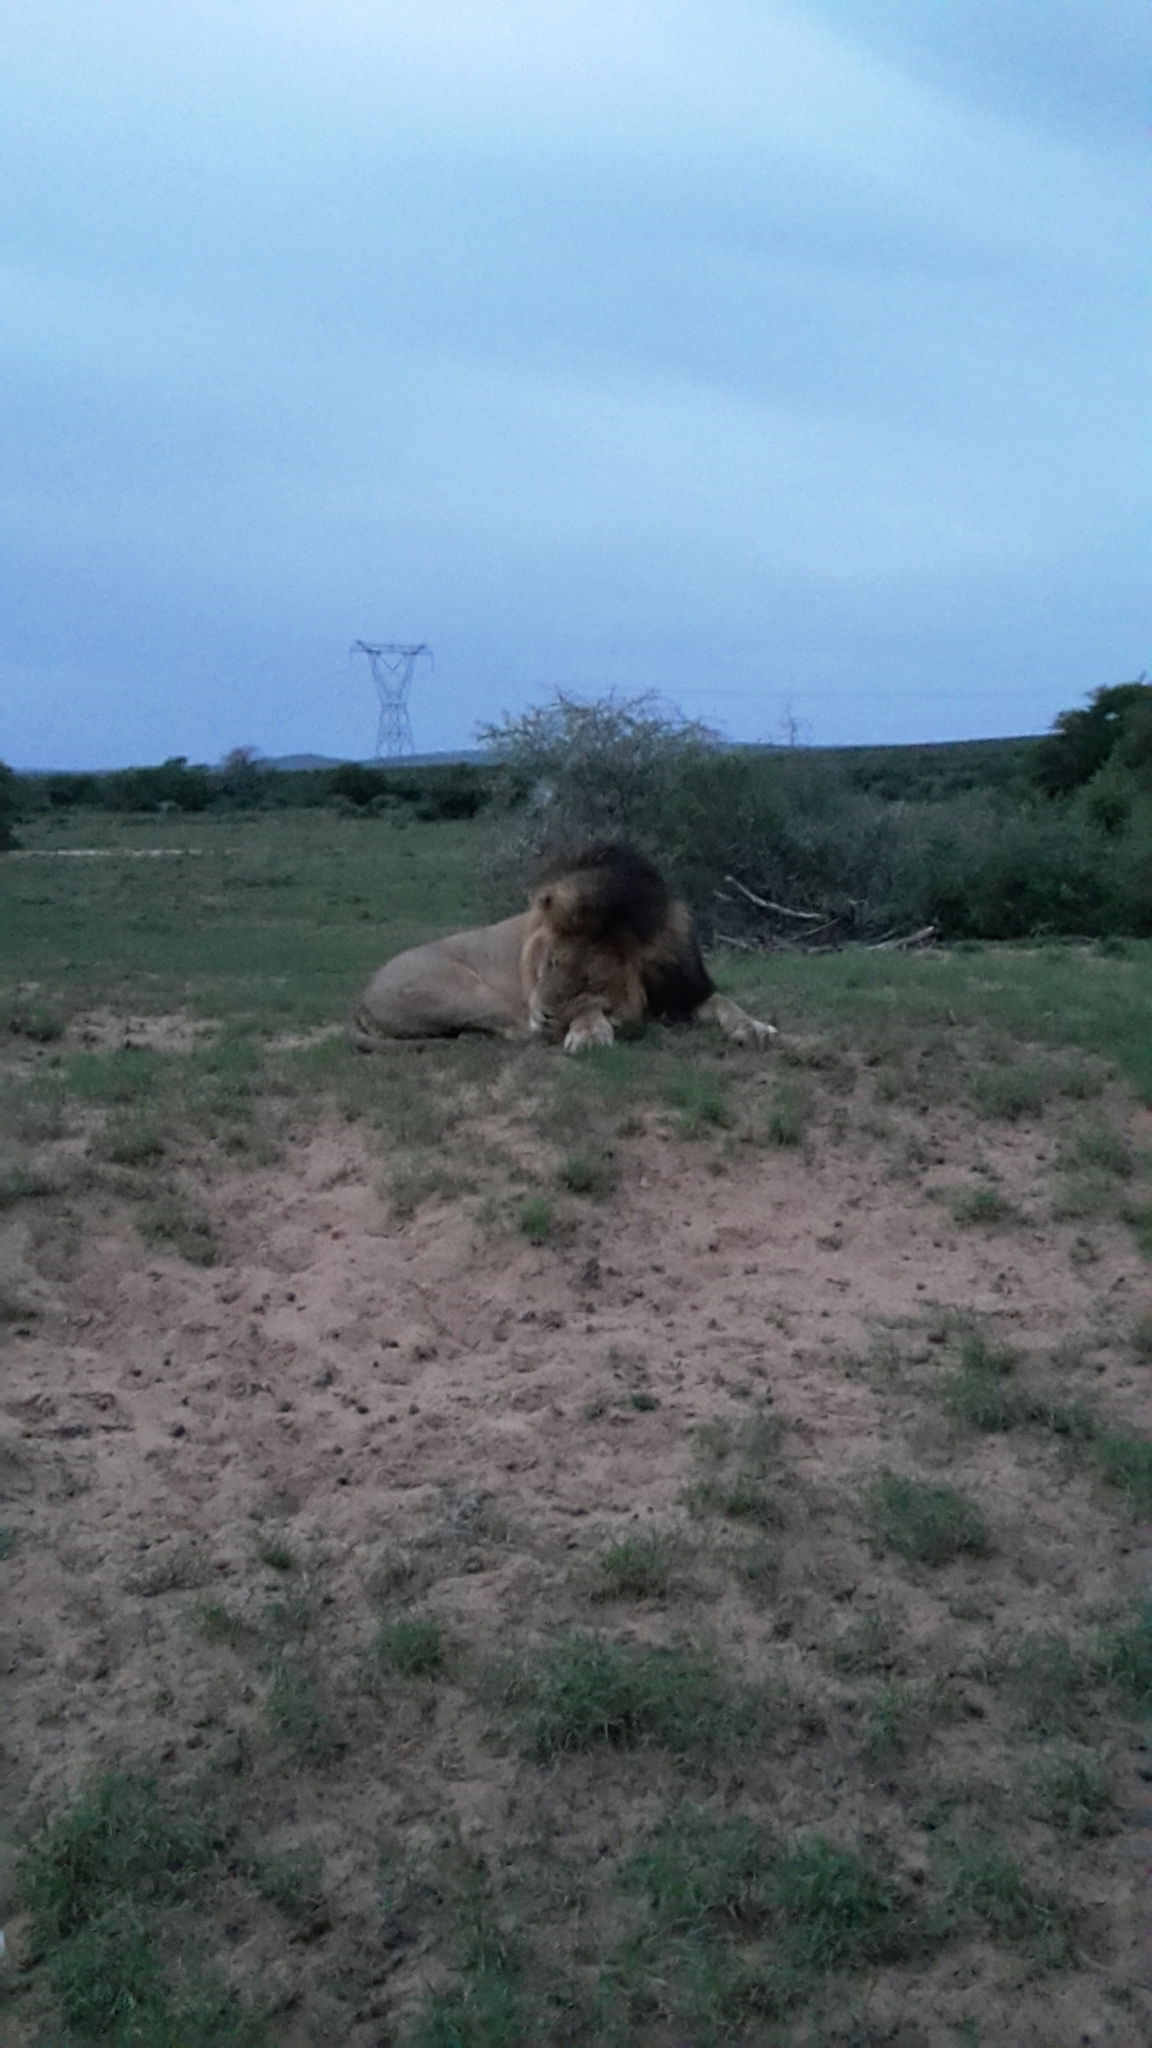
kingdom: Animalia
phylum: Chordata
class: Mammalia
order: Carnivora
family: Felidae
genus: Panthera
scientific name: Panthera leo
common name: Lion
